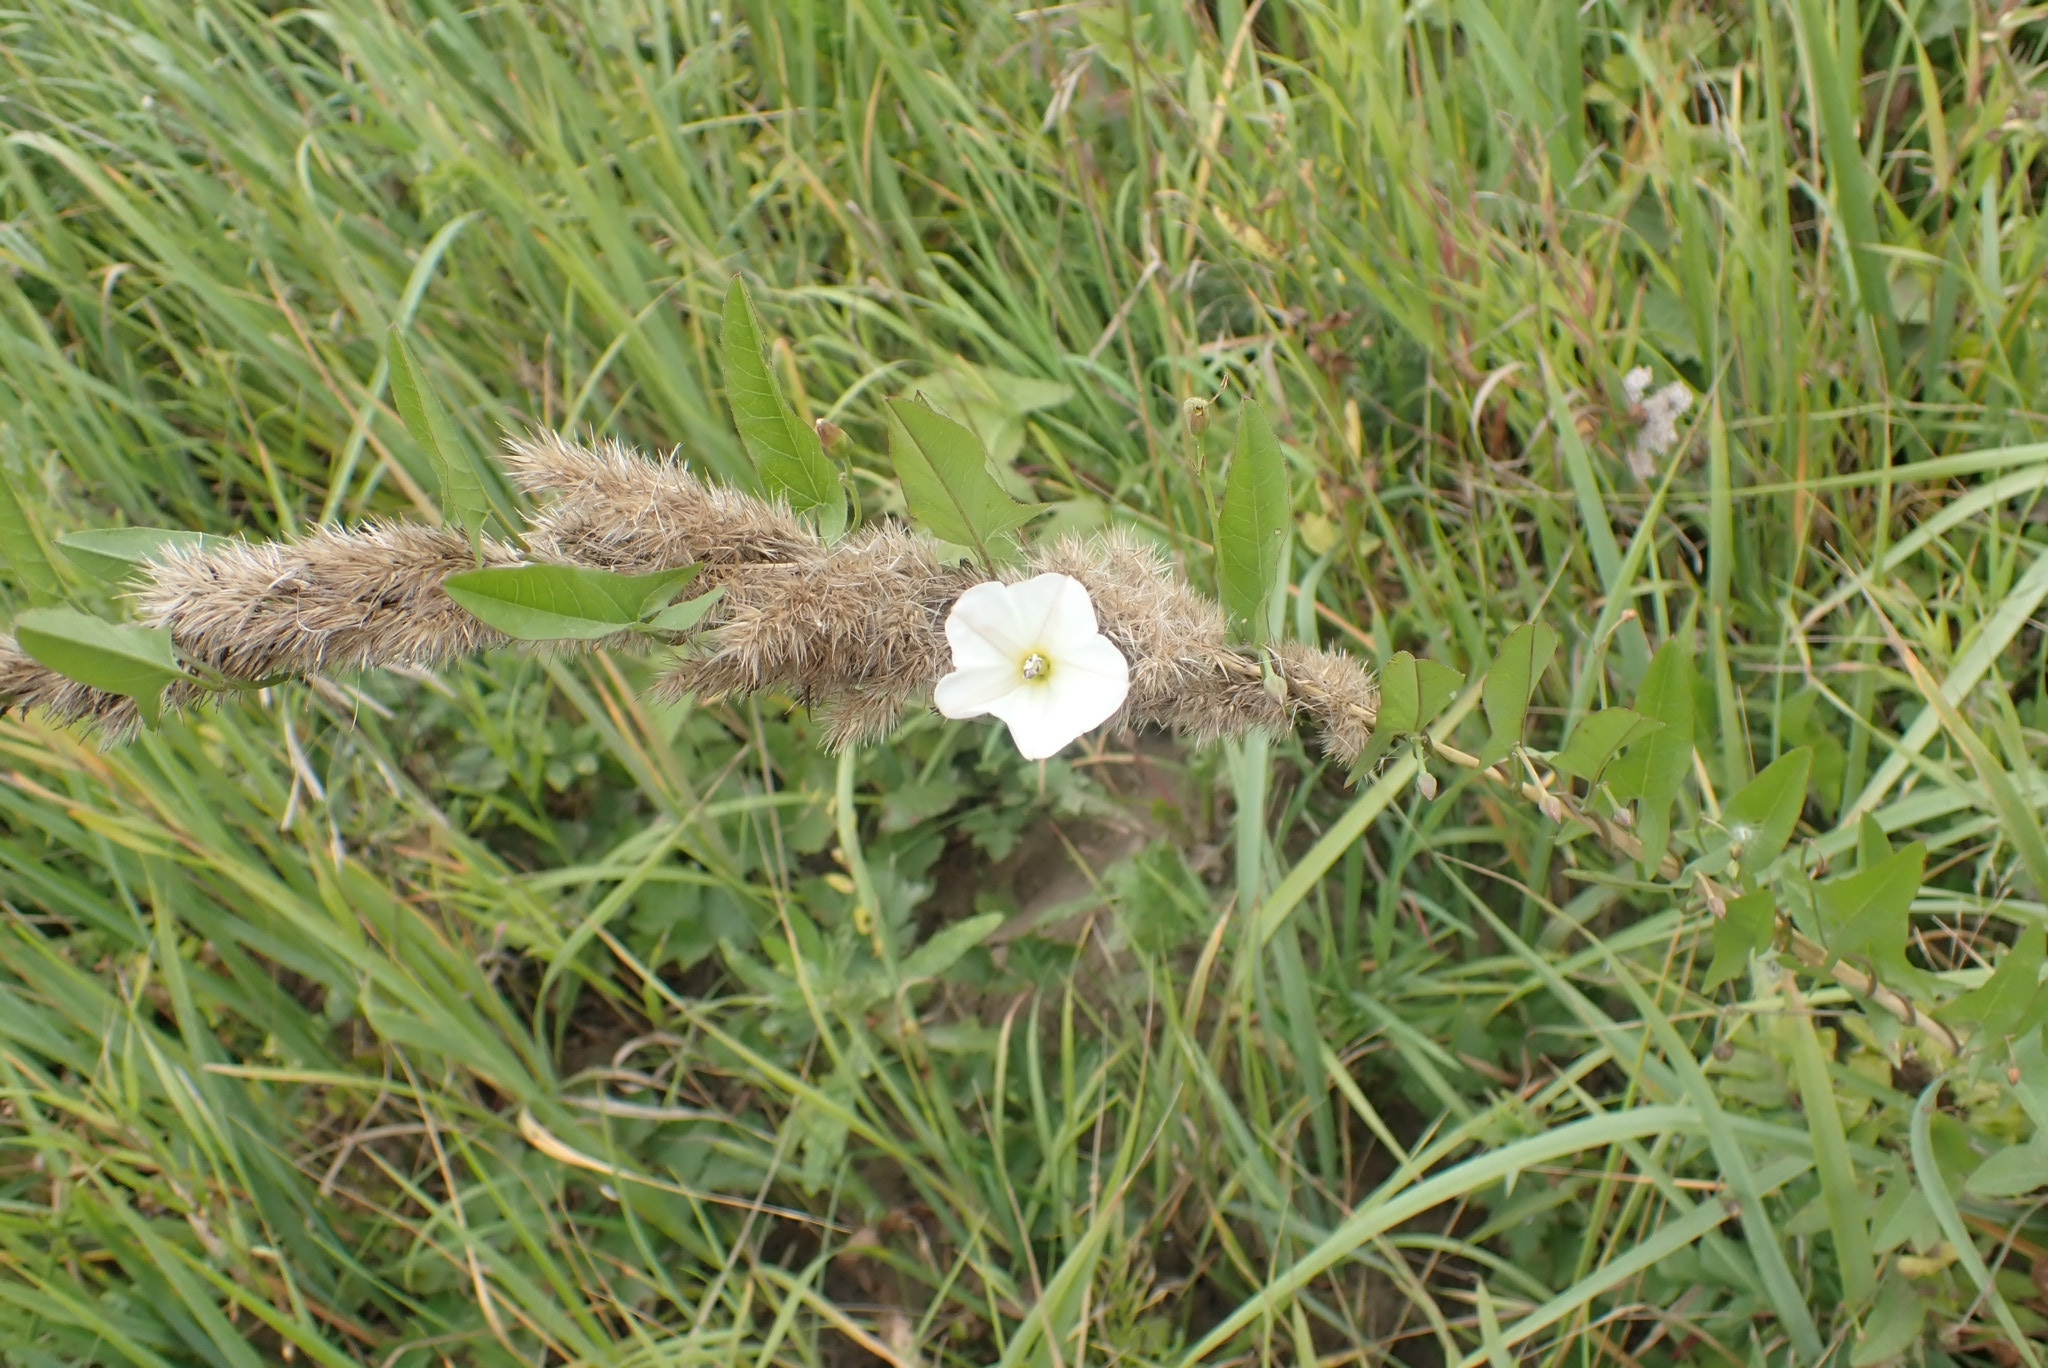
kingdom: Plantae
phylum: Tracheophyta
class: Magnoliopsida
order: Solanales
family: Convolvulaceae
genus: Convolvulus
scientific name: Convolvulus arvensis
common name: Field bindweed
